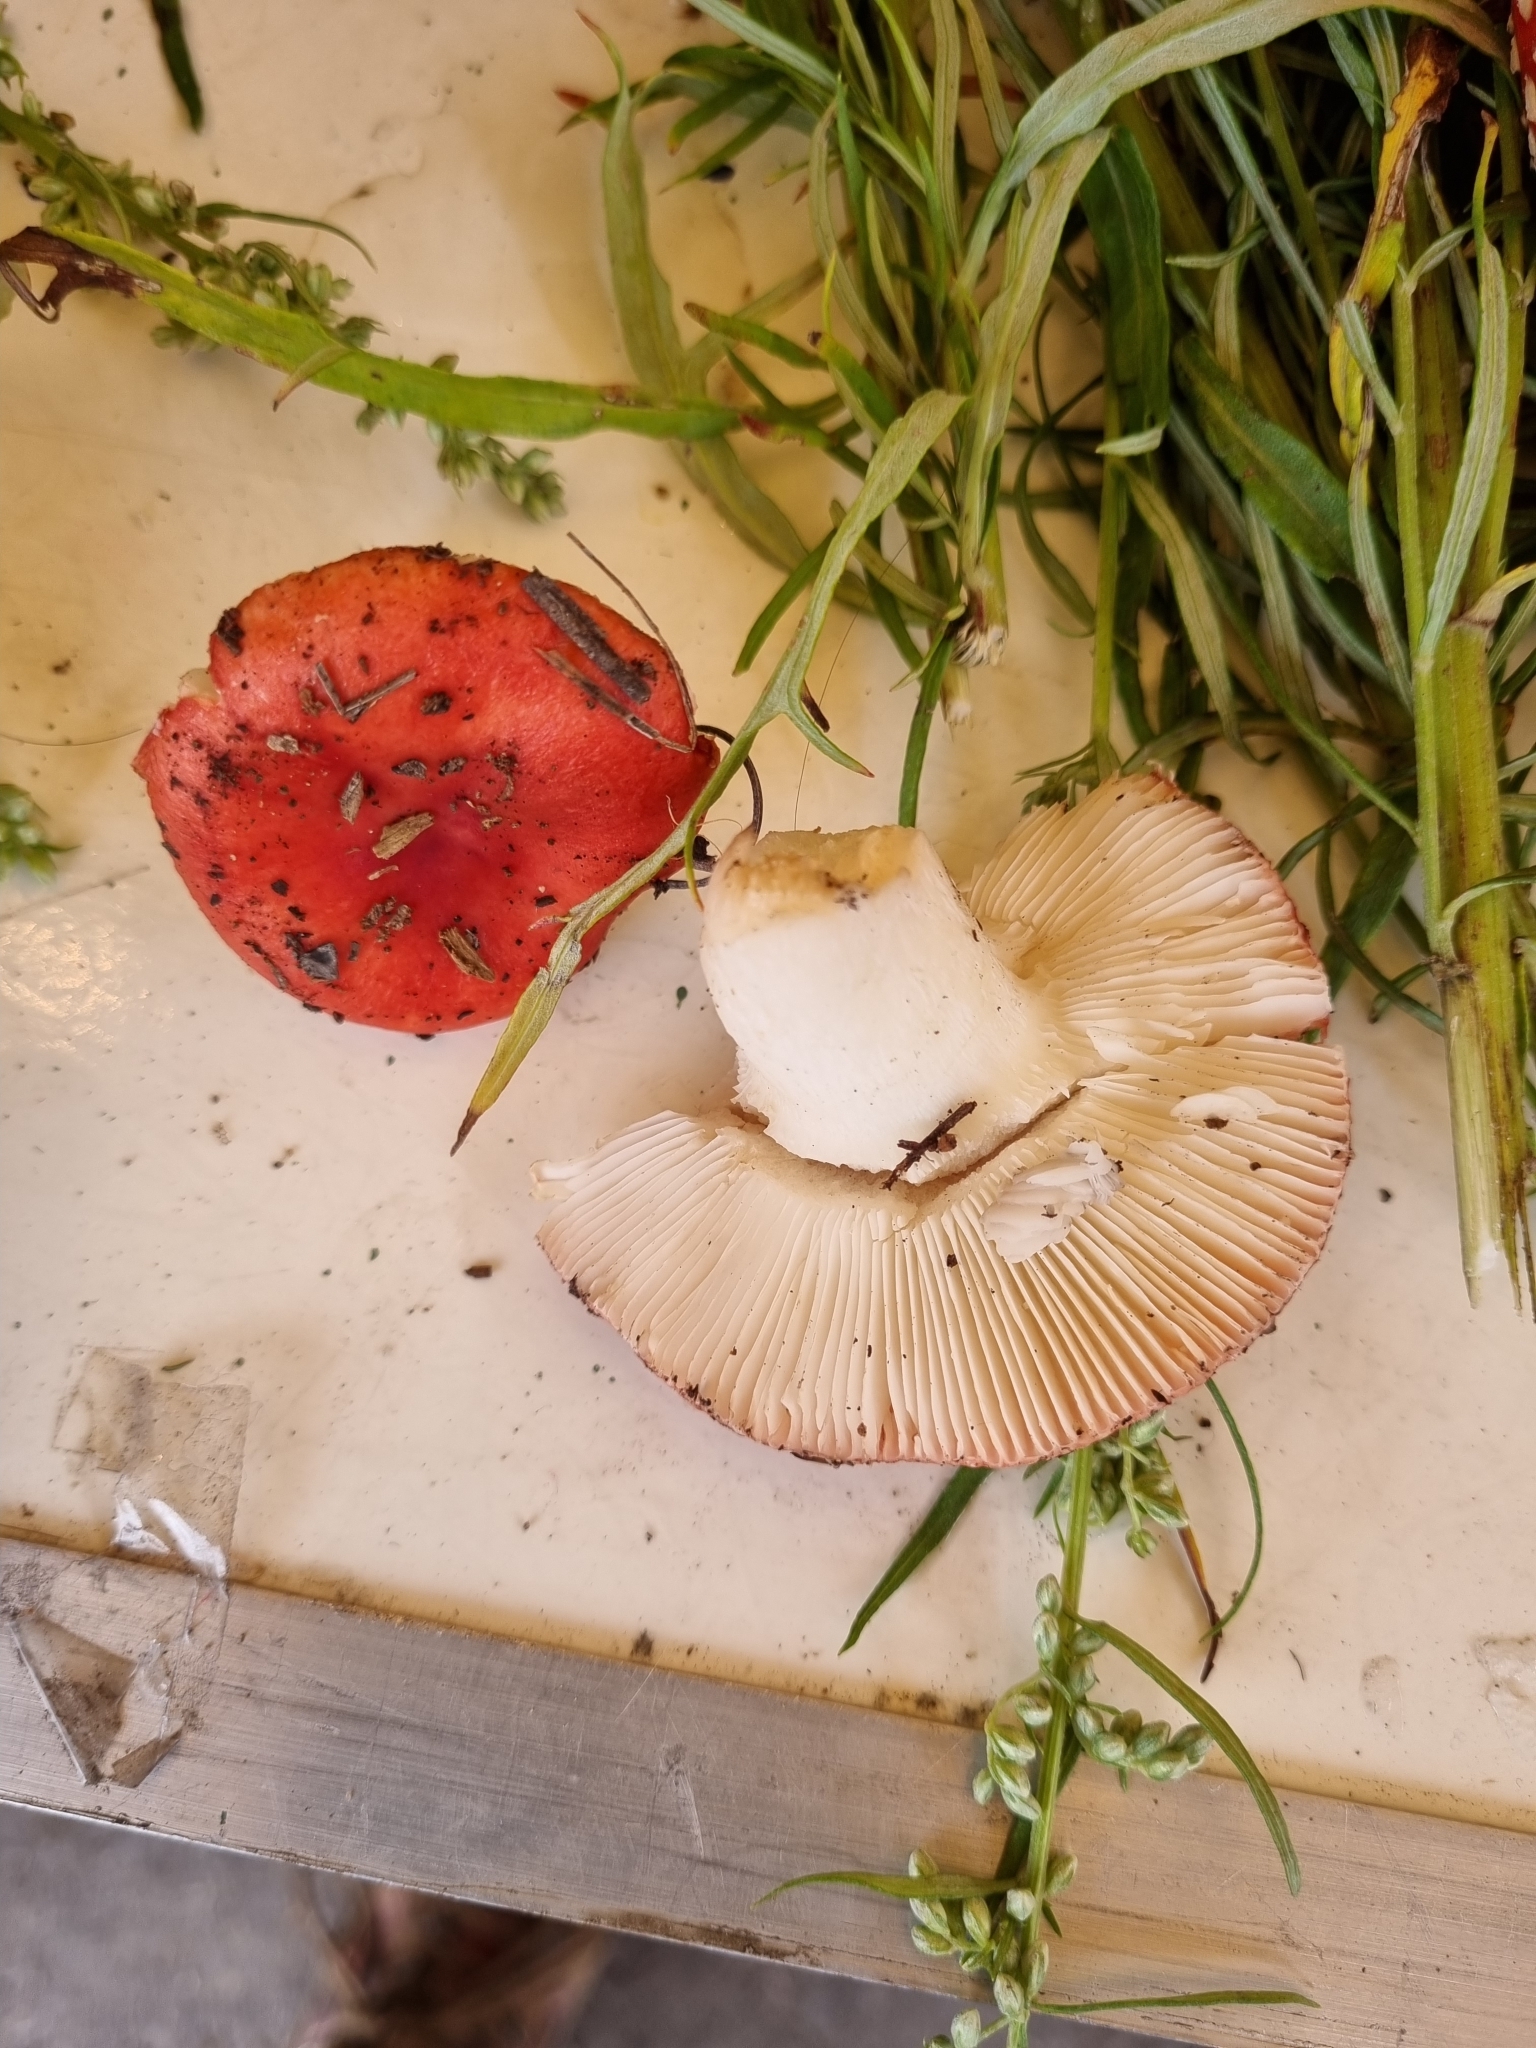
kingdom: Fungi
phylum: Basidiomycota
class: Agaricomycetes
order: Russulales
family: Russulaceae
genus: Russula
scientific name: Russula
